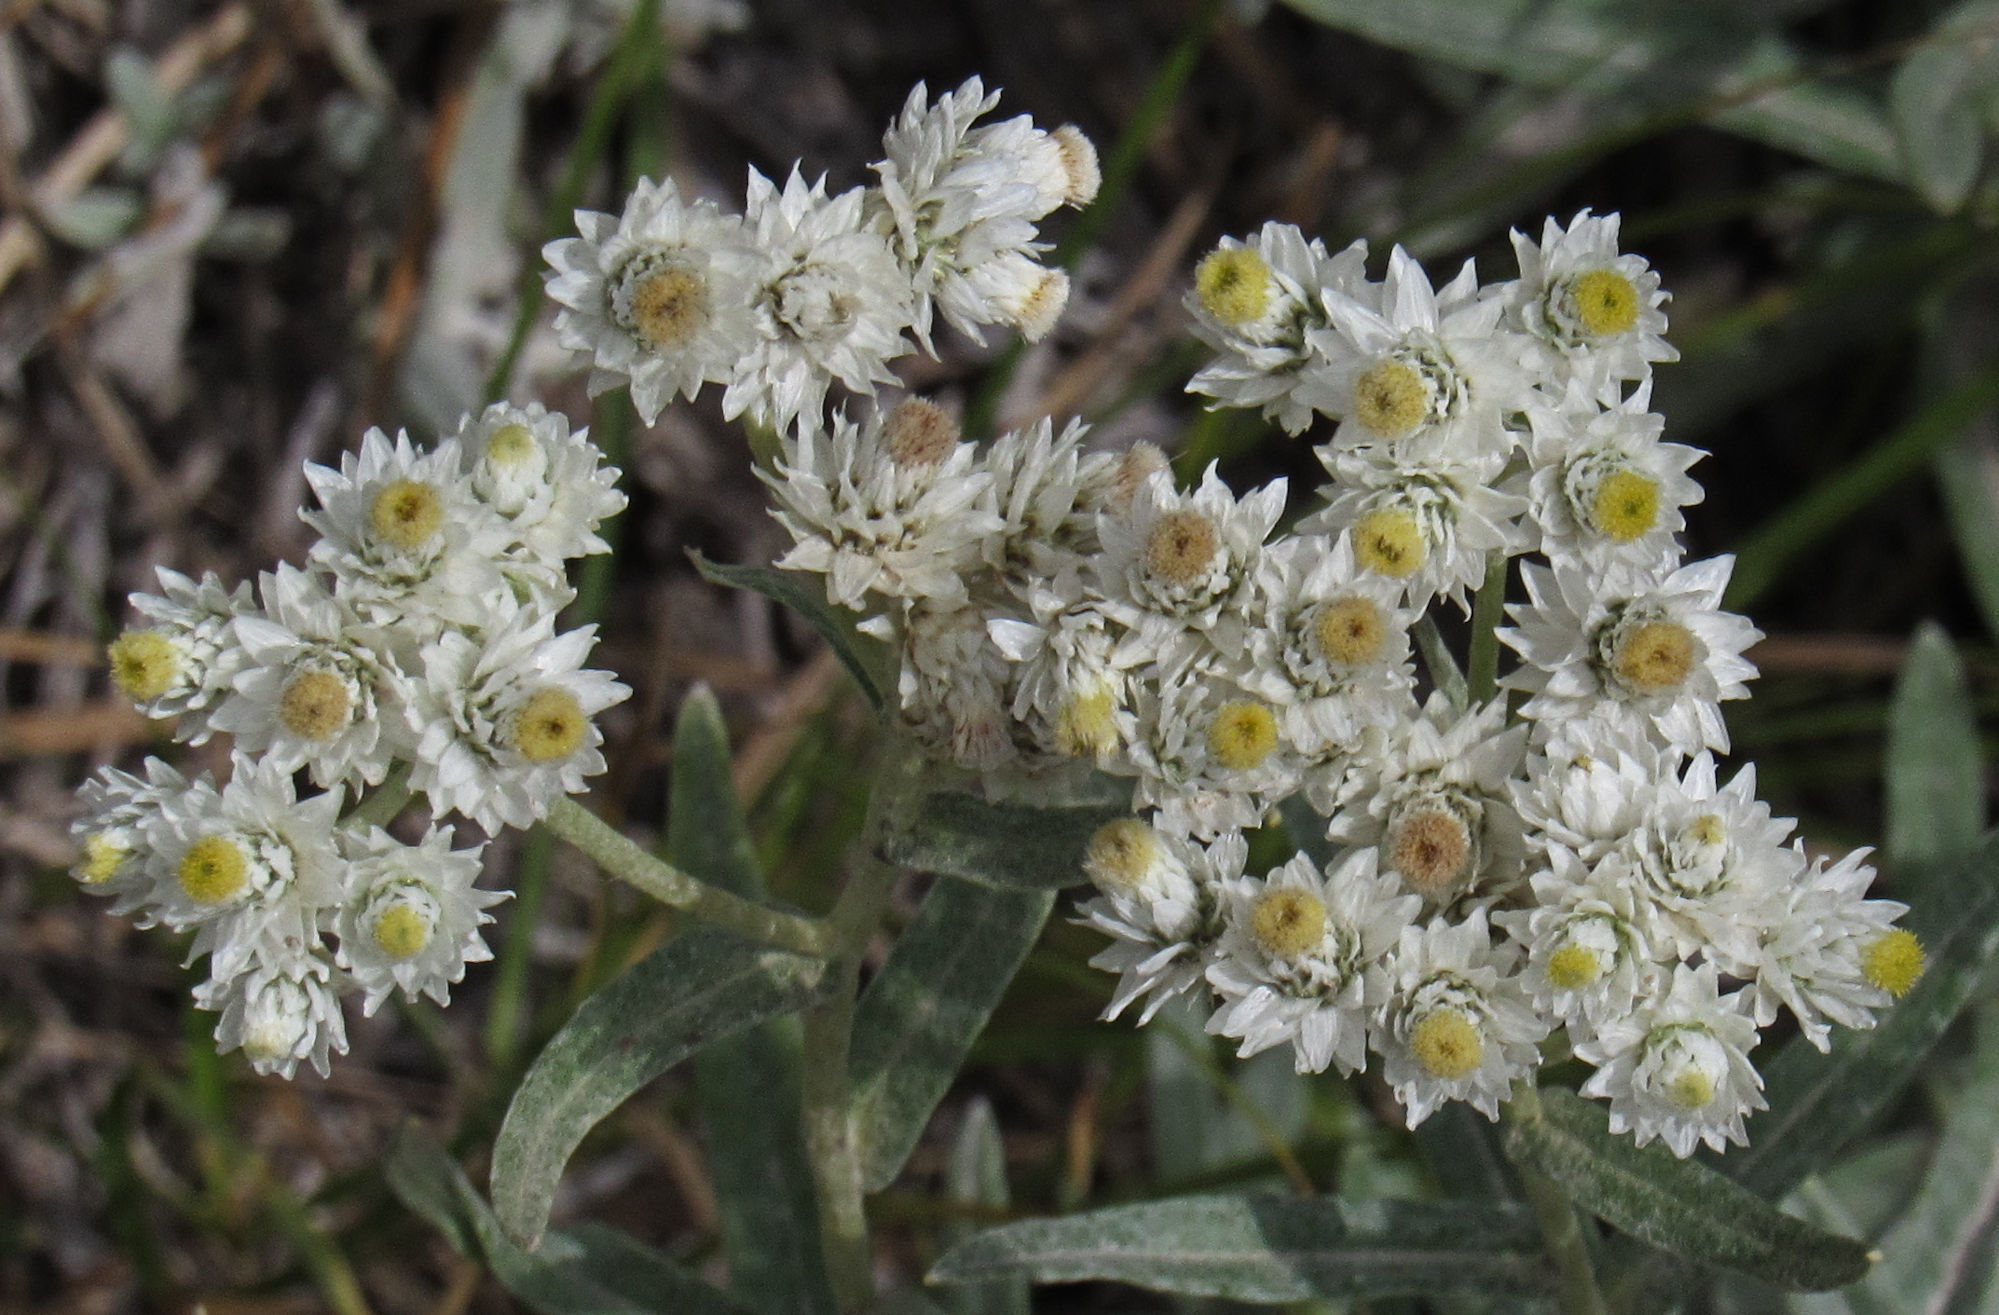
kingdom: Plantae
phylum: Tracheophyta
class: Magnoliopsida
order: Asterales
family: Asteraceae
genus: Anaphalis
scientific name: Anaphalis margaritacea
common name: Pearly everlasting
